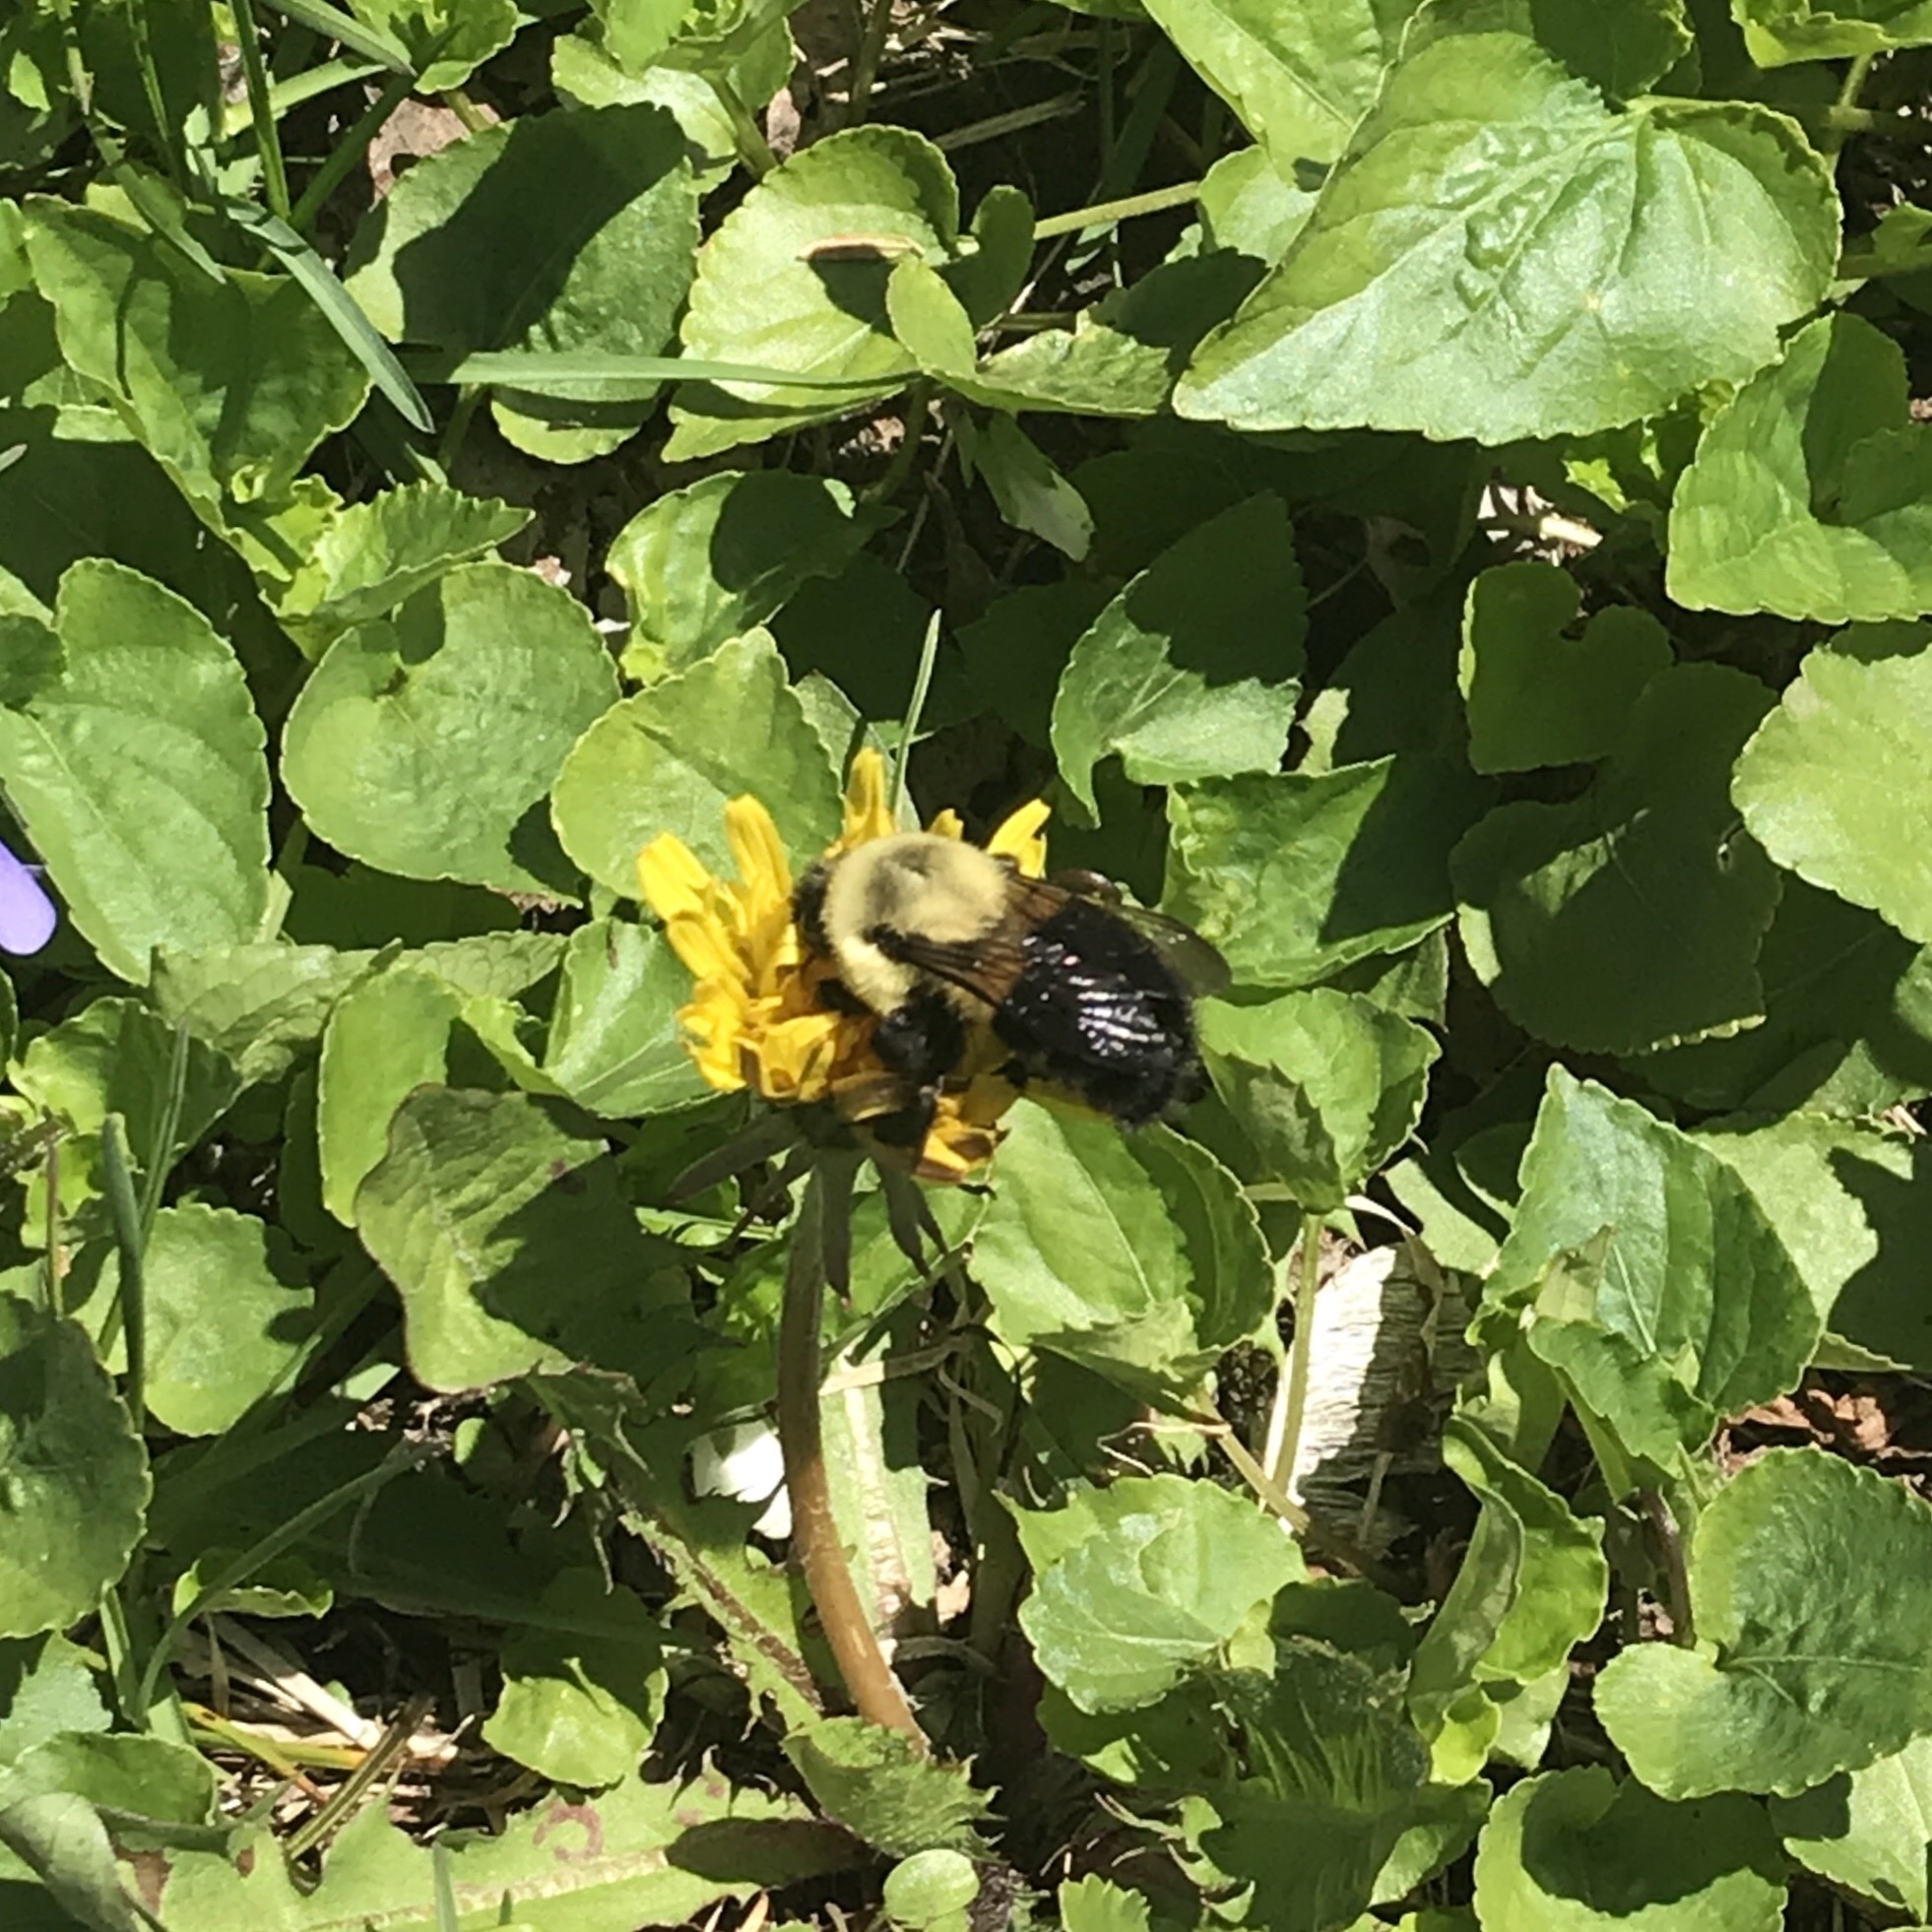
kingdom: Animalia
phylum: Arthropoda
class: Insecta
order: Hymenoptera
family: Apidae
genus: Bombus
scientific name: Bombus impatiens
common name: Common eastern bumble bee
